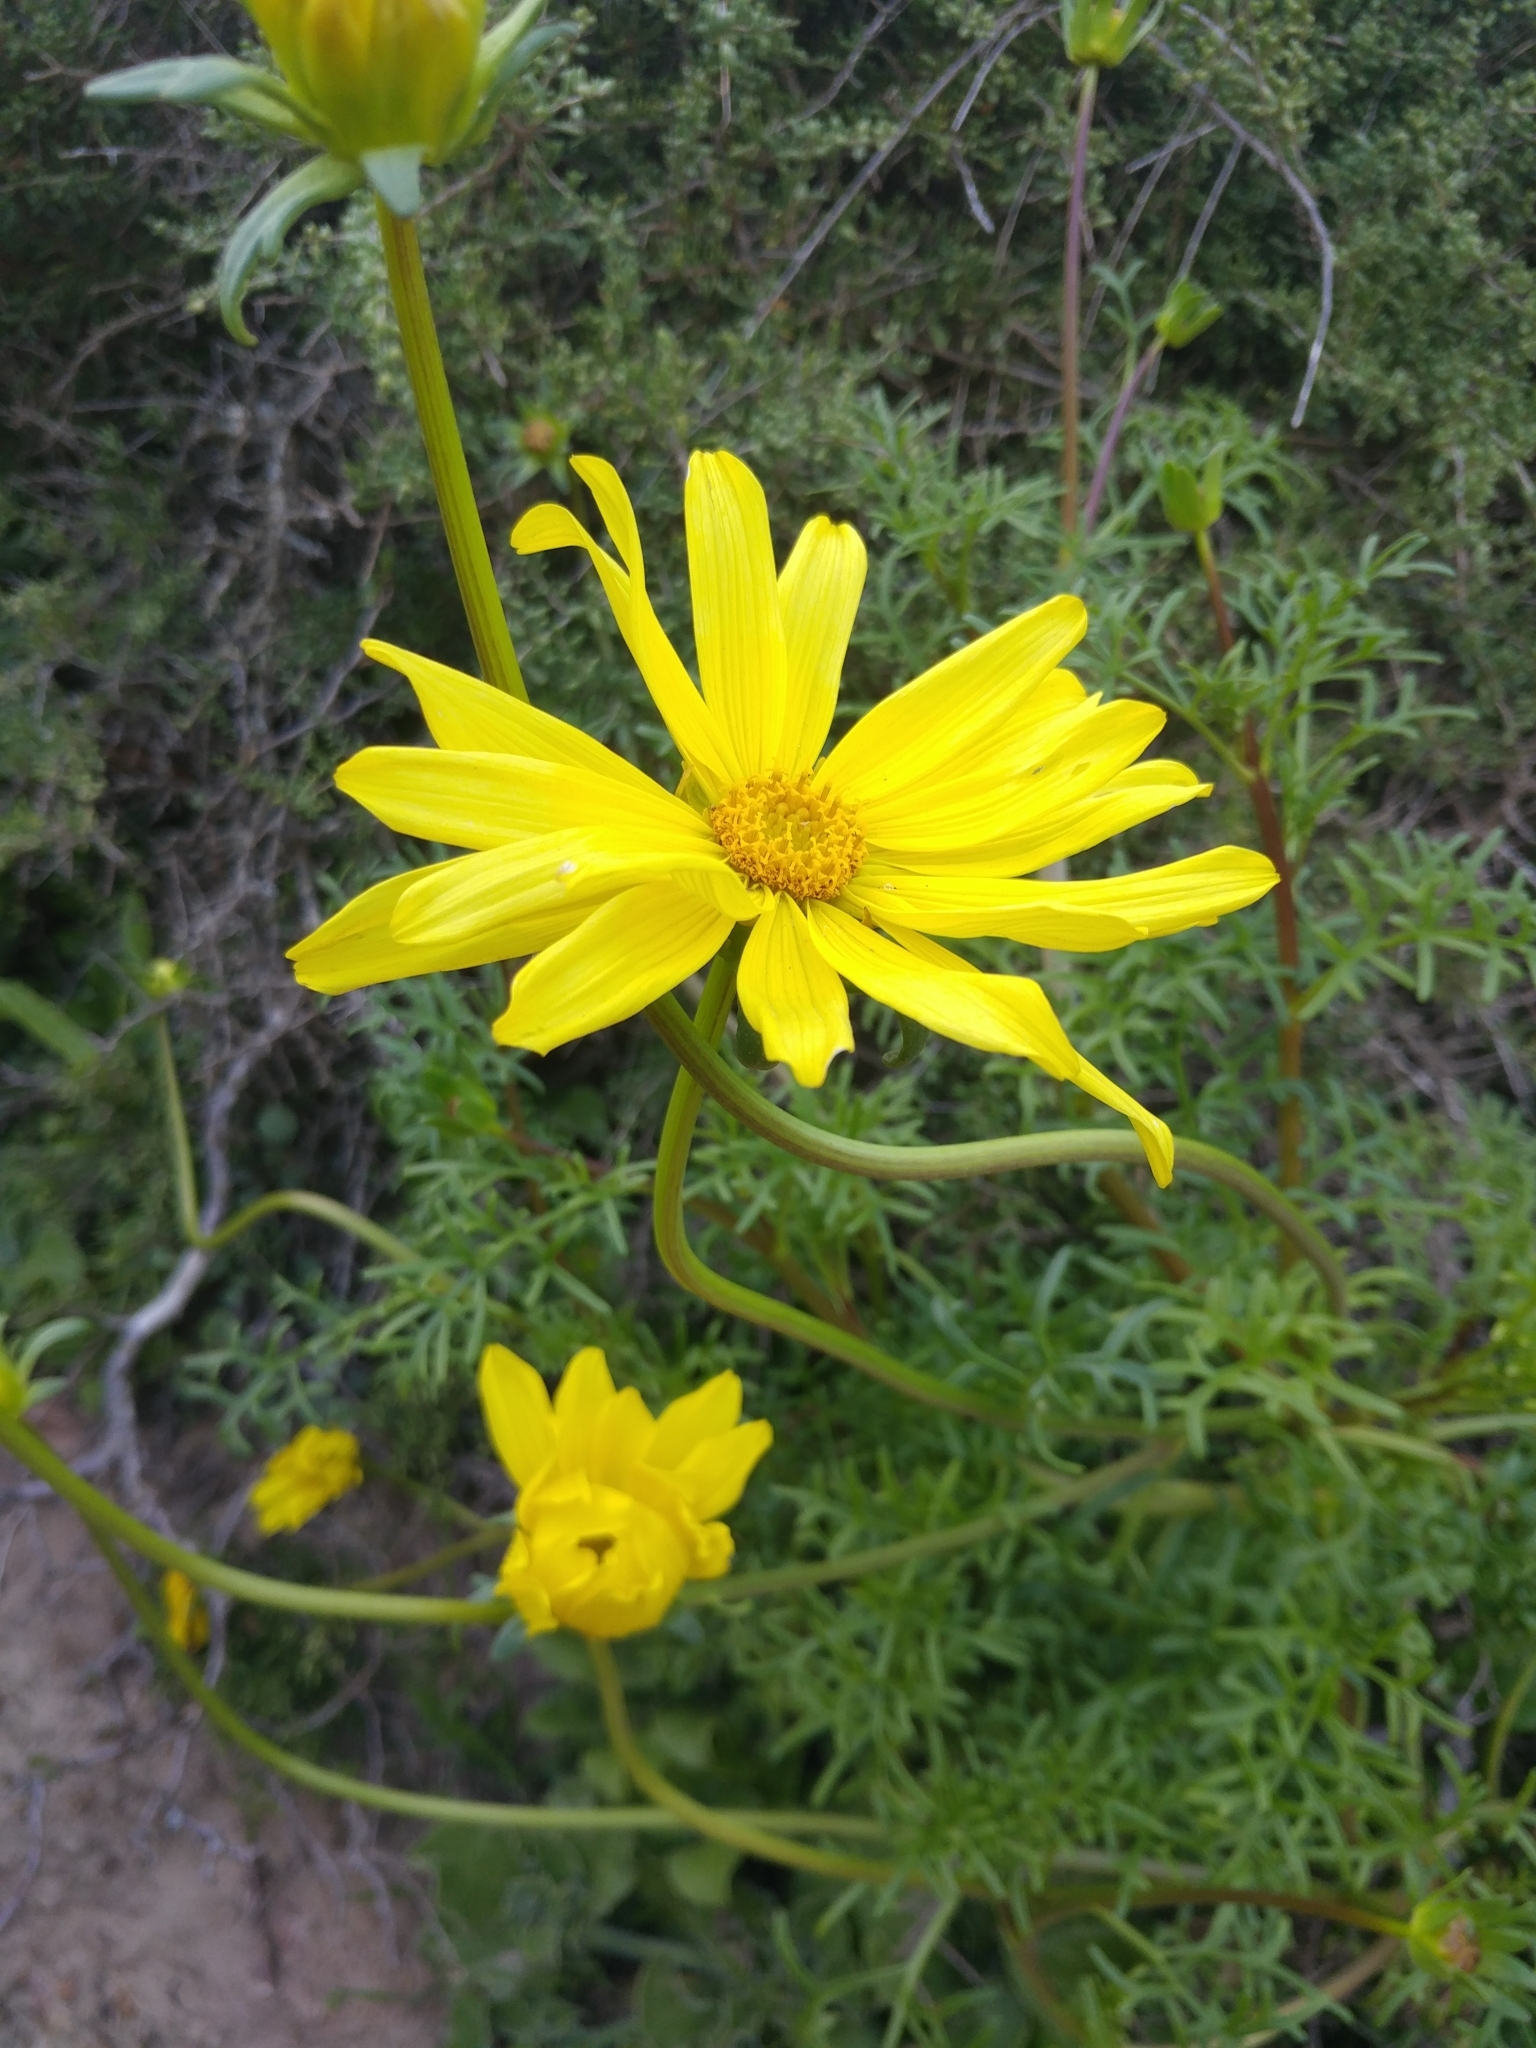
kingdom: Plantae
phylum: Tracheophyta
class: Magnoliopsida
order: Asterales
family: Asteraceae
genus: Coreopsis
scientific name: Coreopsis maritima
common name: Sea-dahlia
